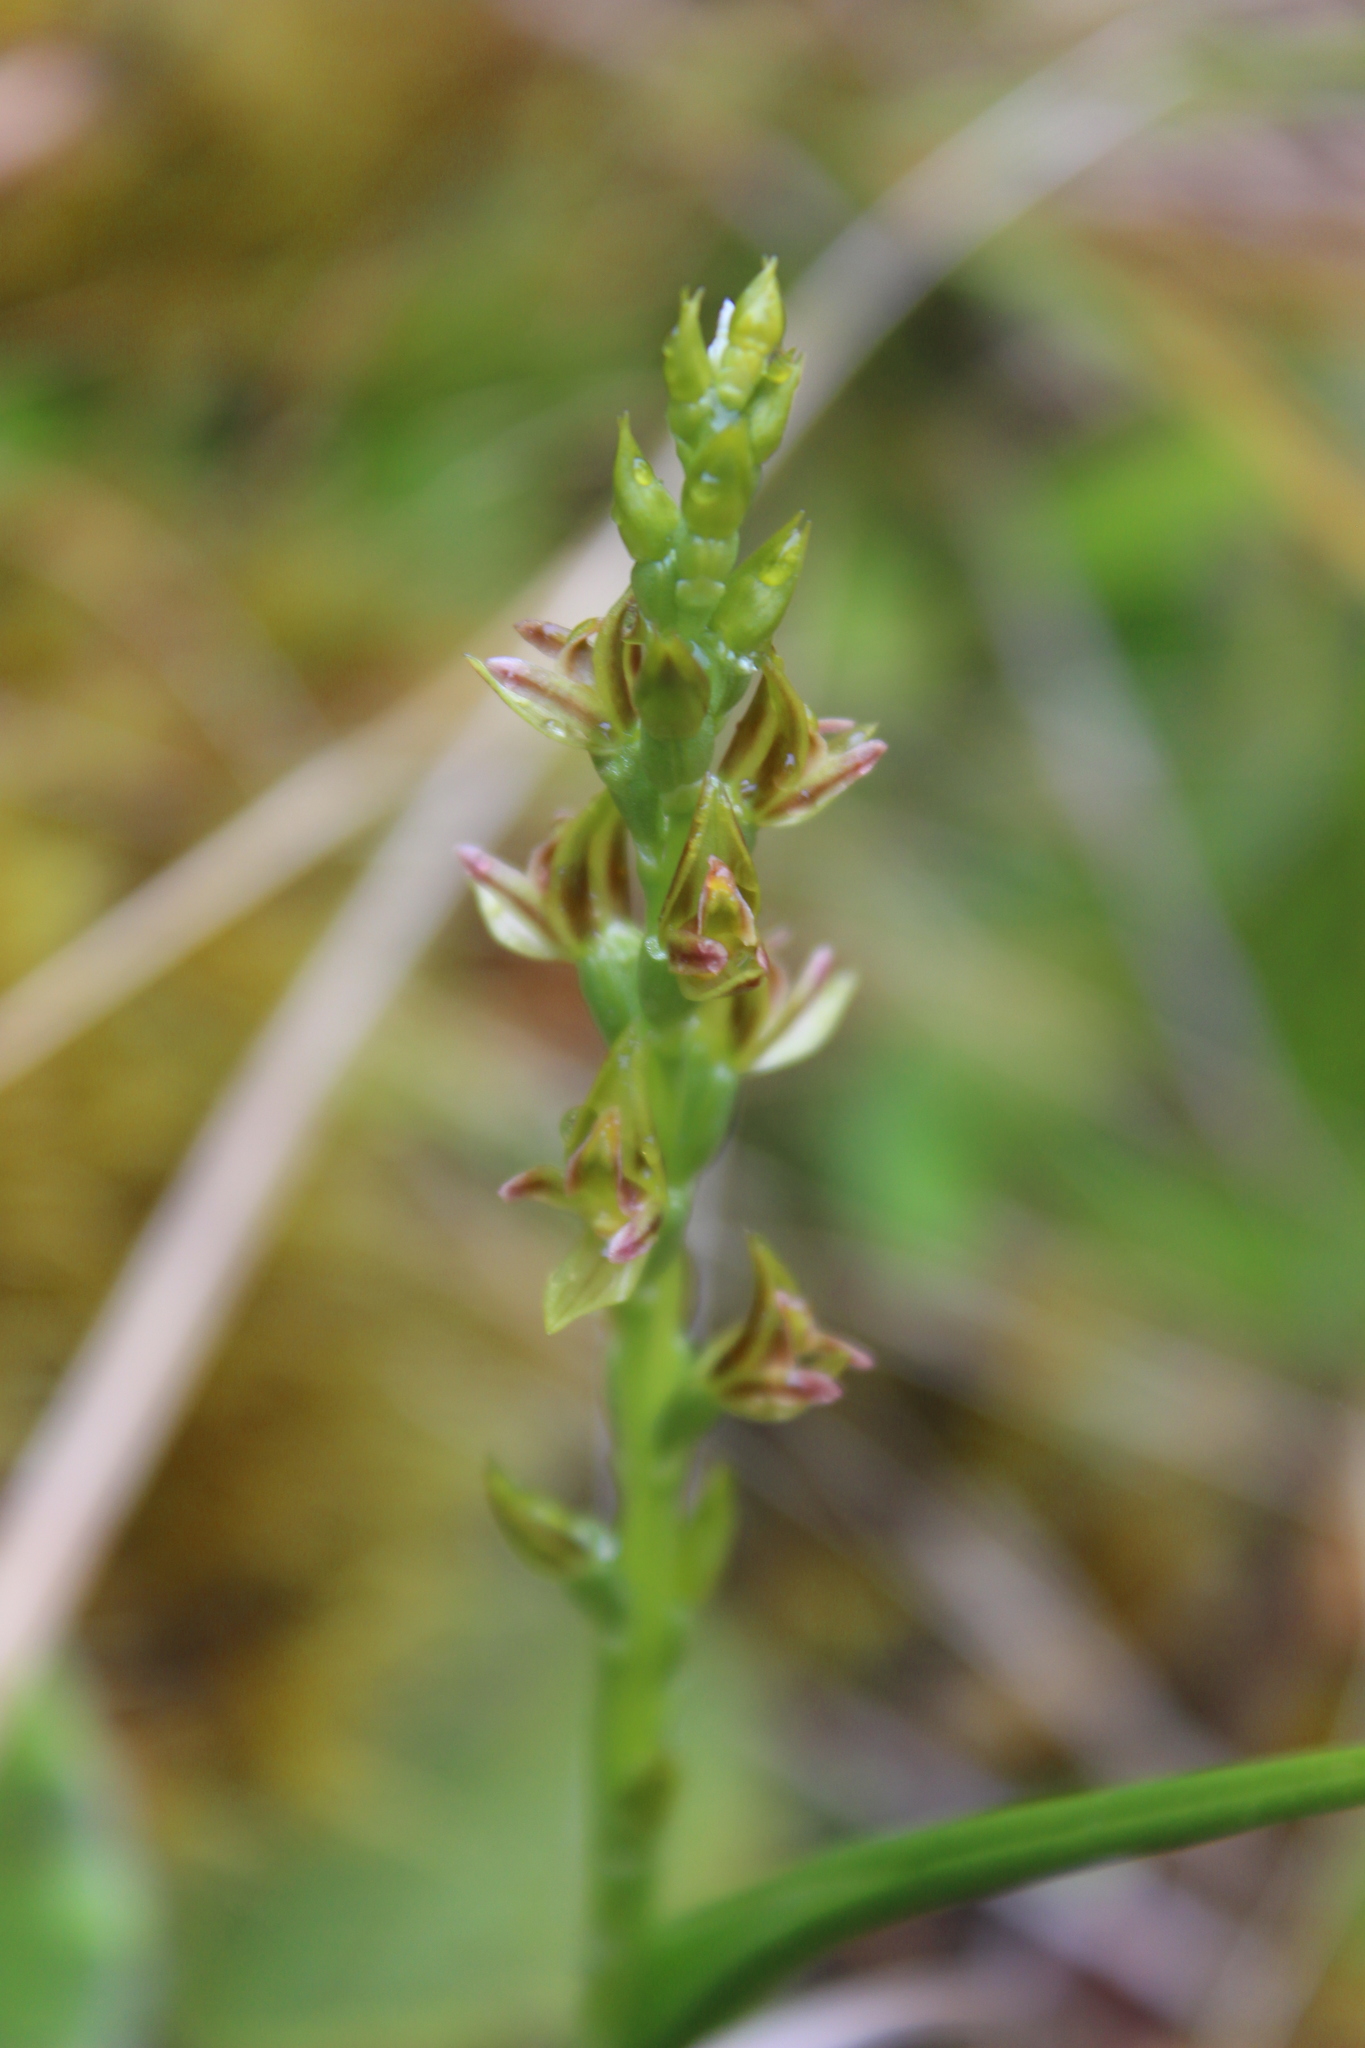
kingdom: Plantae
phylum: Tracheophyta
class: Liliopsida
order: Asparagales
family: Orchidaceae
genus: Prasophyllum
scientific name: Prasophyllum colensoi
